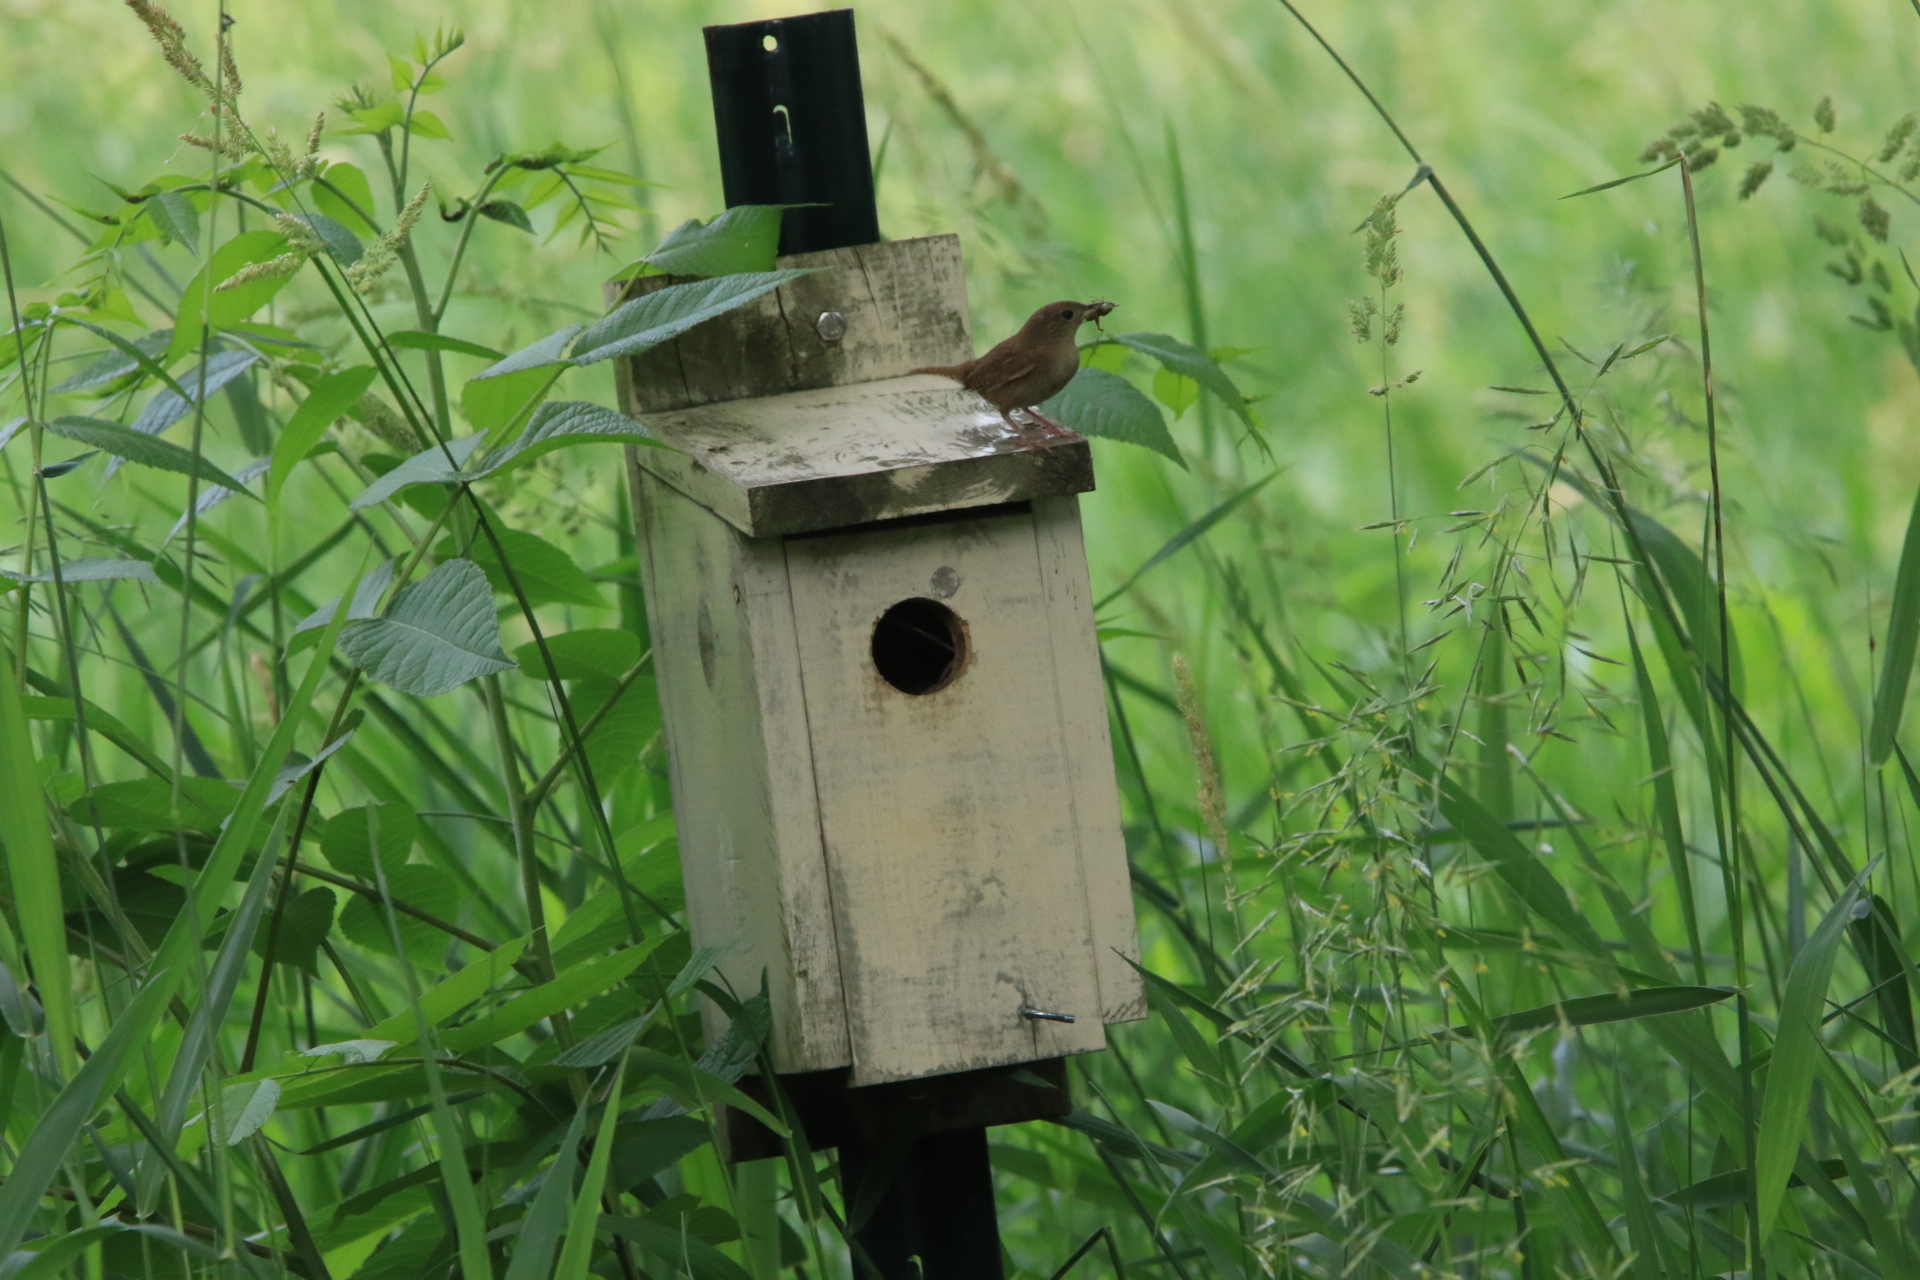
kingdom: Animalia
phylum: Chordata
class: Aves
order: Passeriformes
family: Troglodytidae
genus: Troglodytes
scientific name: Troglodytes aedon
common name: House wren
